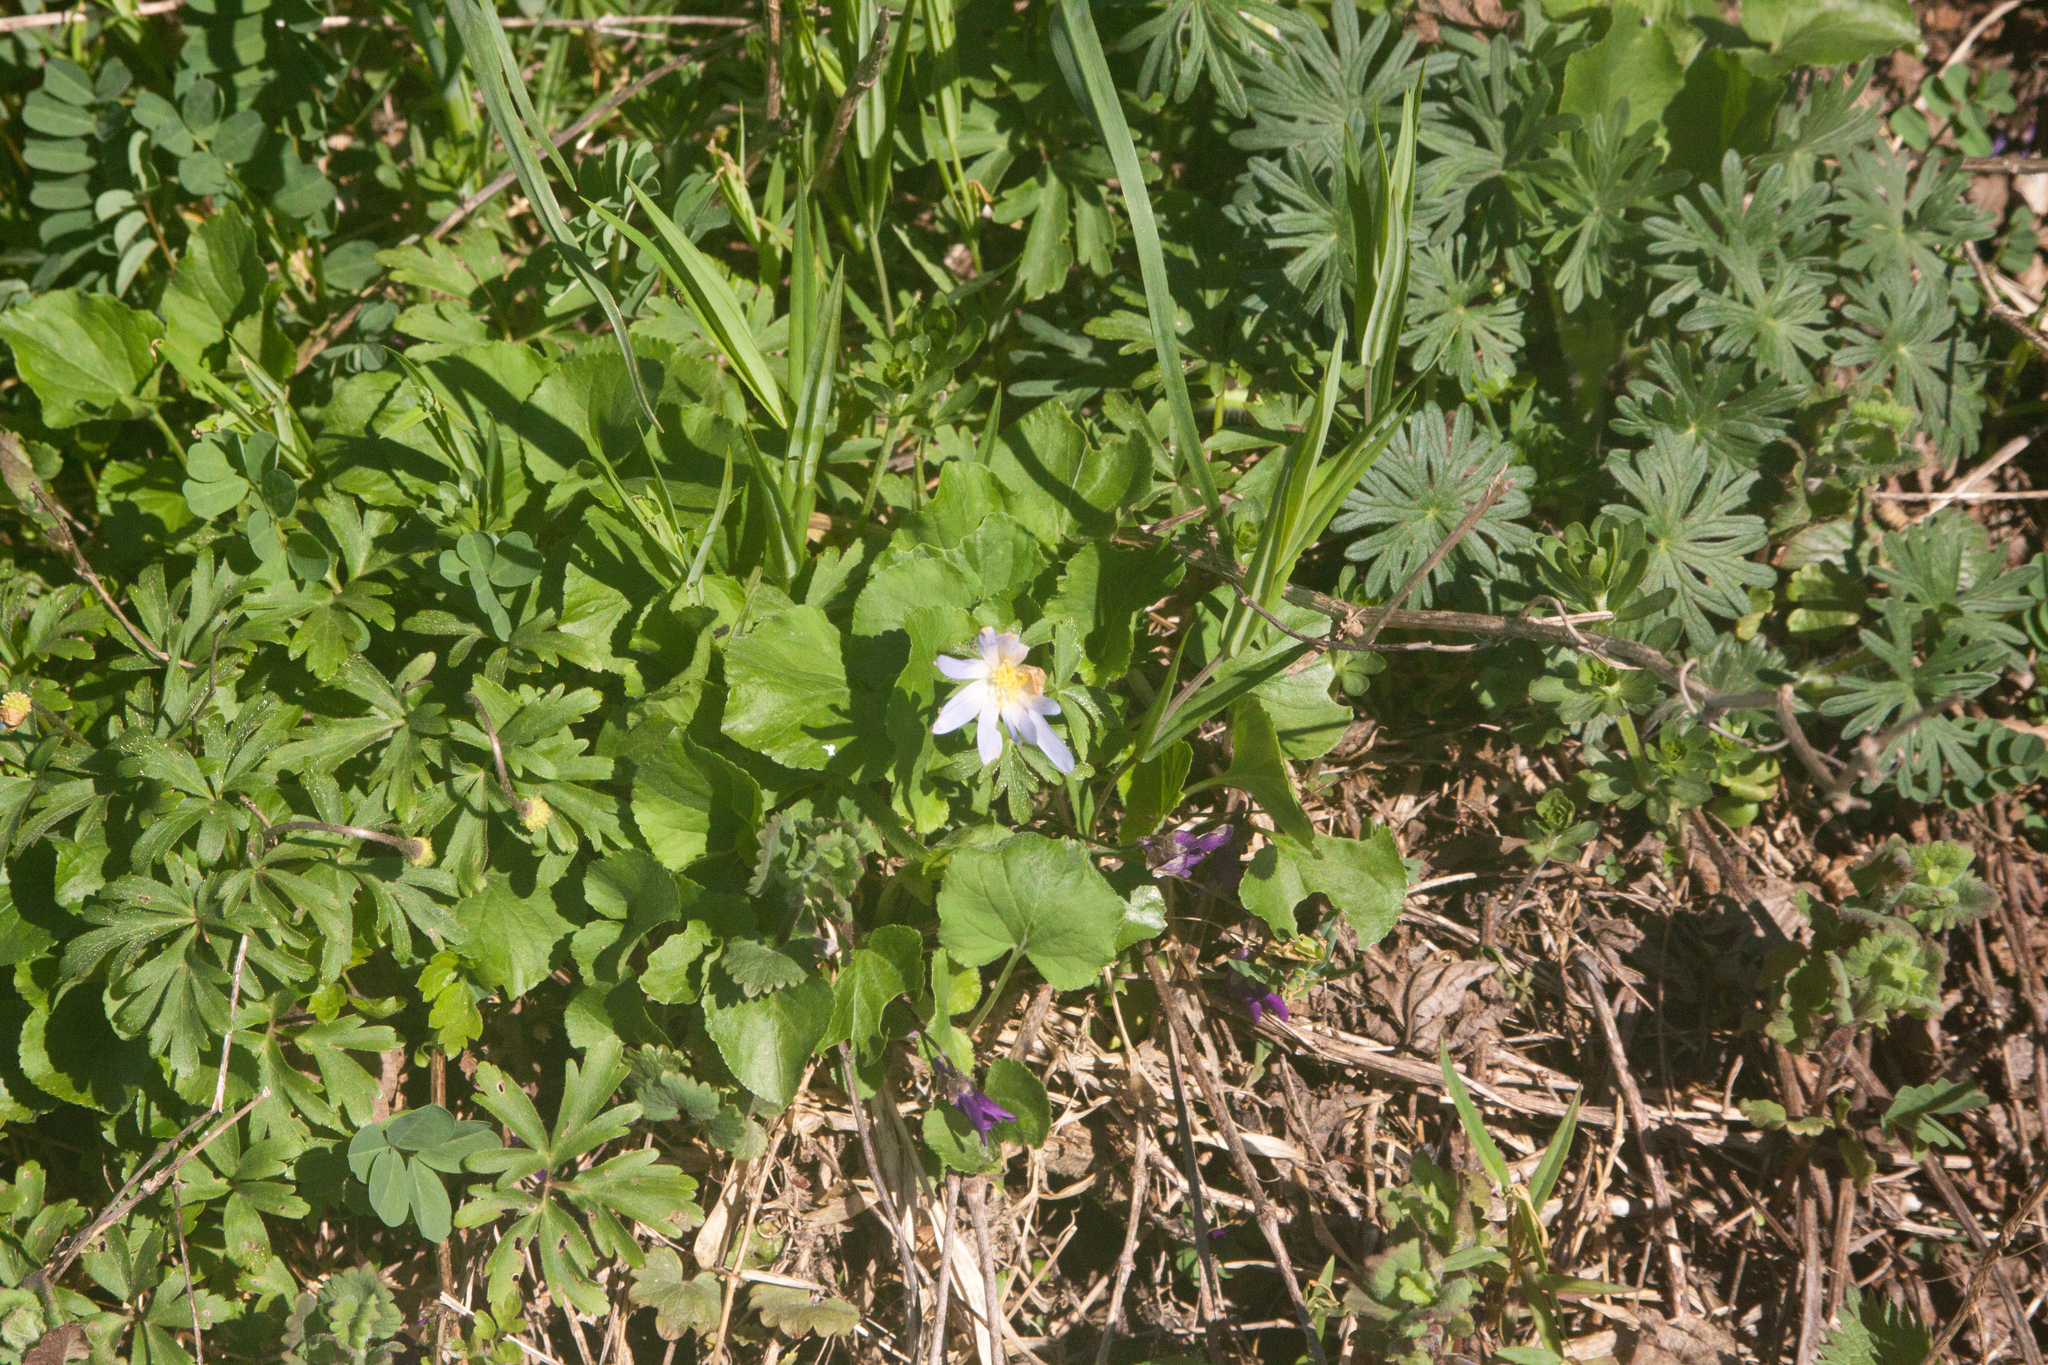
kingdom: Plantae
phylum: Tracheophyta
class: Magnoliopsida
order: Ranunculales
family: Ranunculaceae
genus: Anemone
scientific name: Anemone blanda
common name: Balkan anemone
